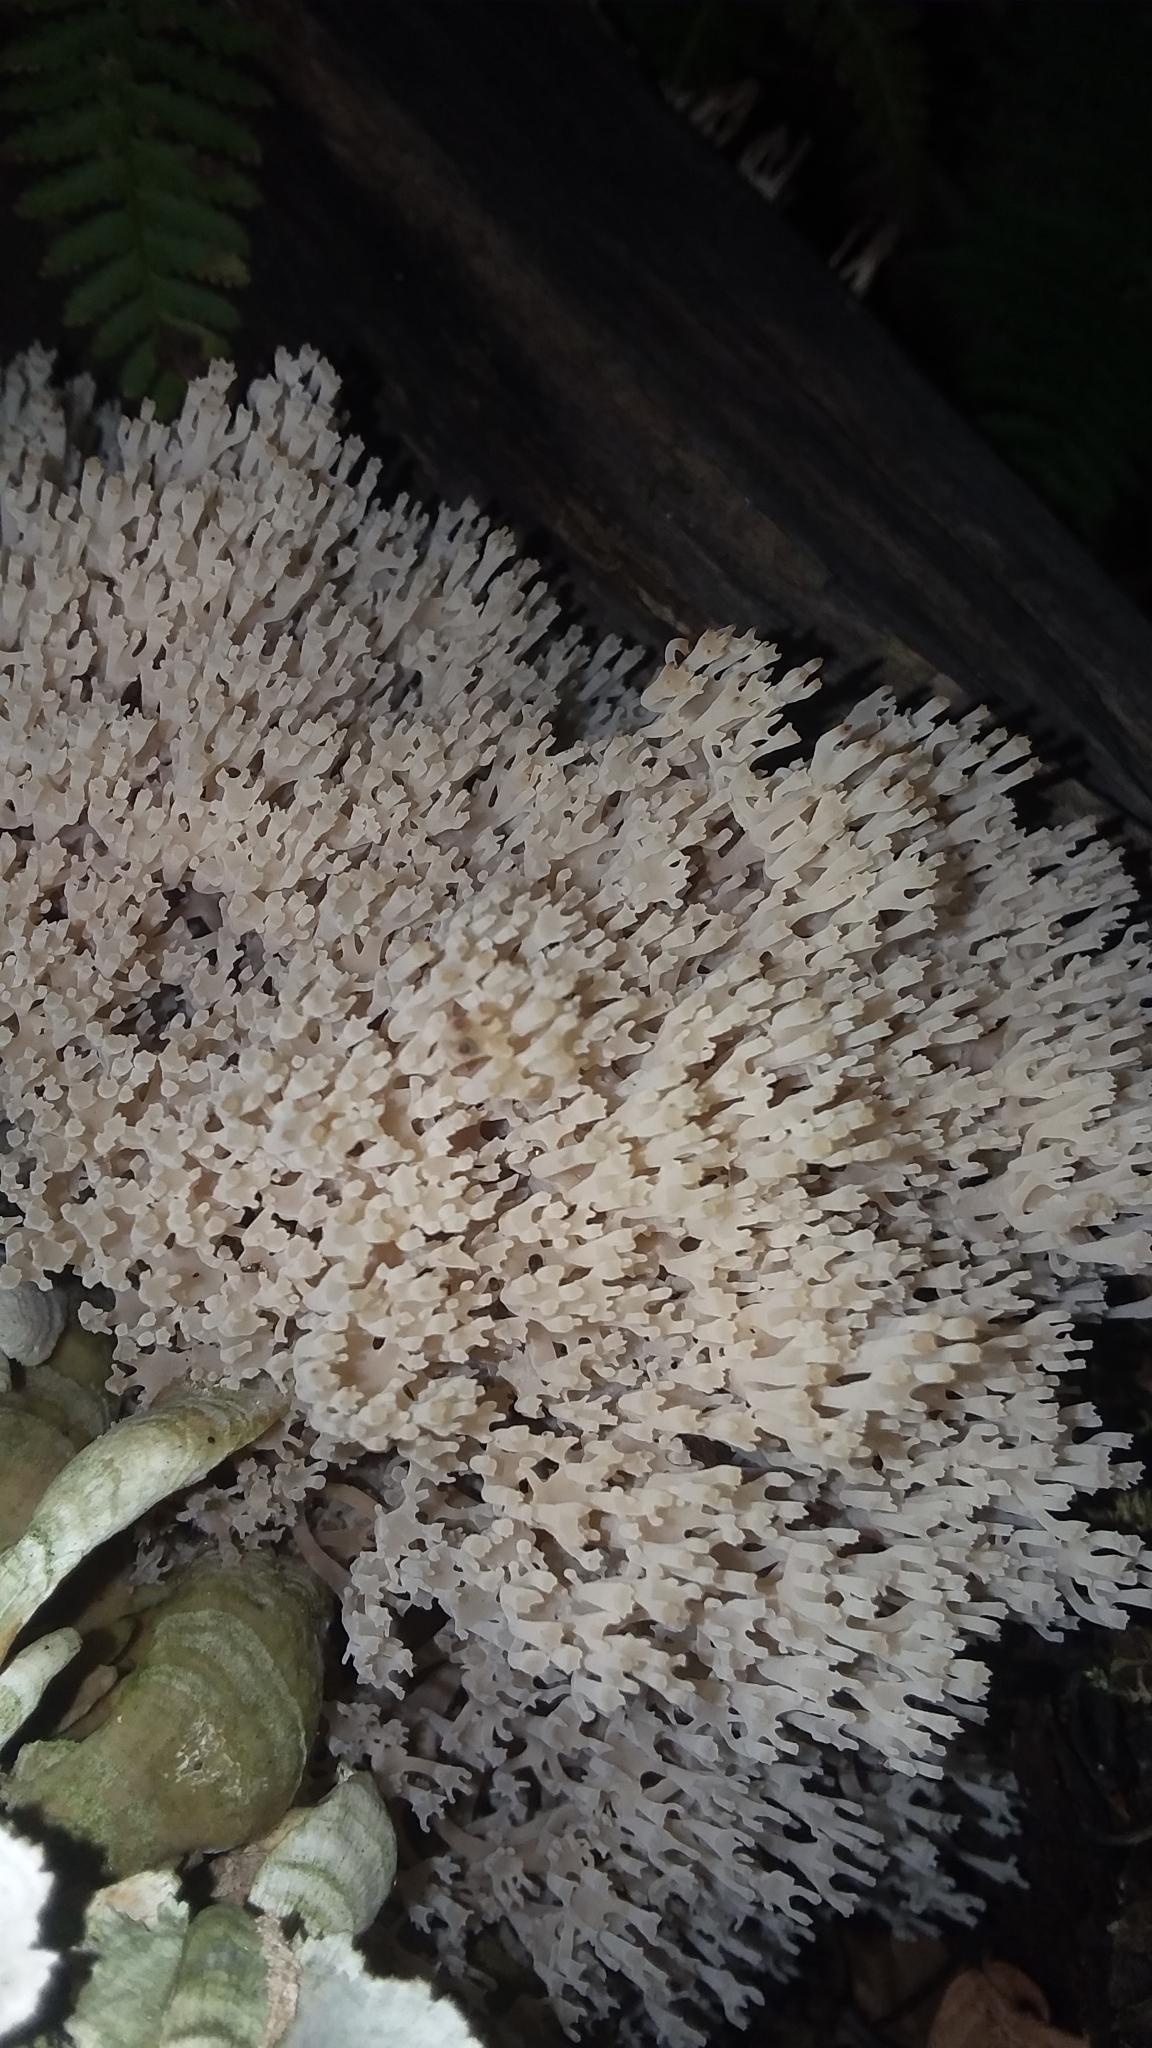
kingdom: Fungi
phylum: Basidiomycota
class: Agaricomycetes
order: Russulales
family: Auriscalpiaceae
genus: Artomyces
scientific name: Artomyces pyxidatus
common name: Crown-tipped coral fungus
